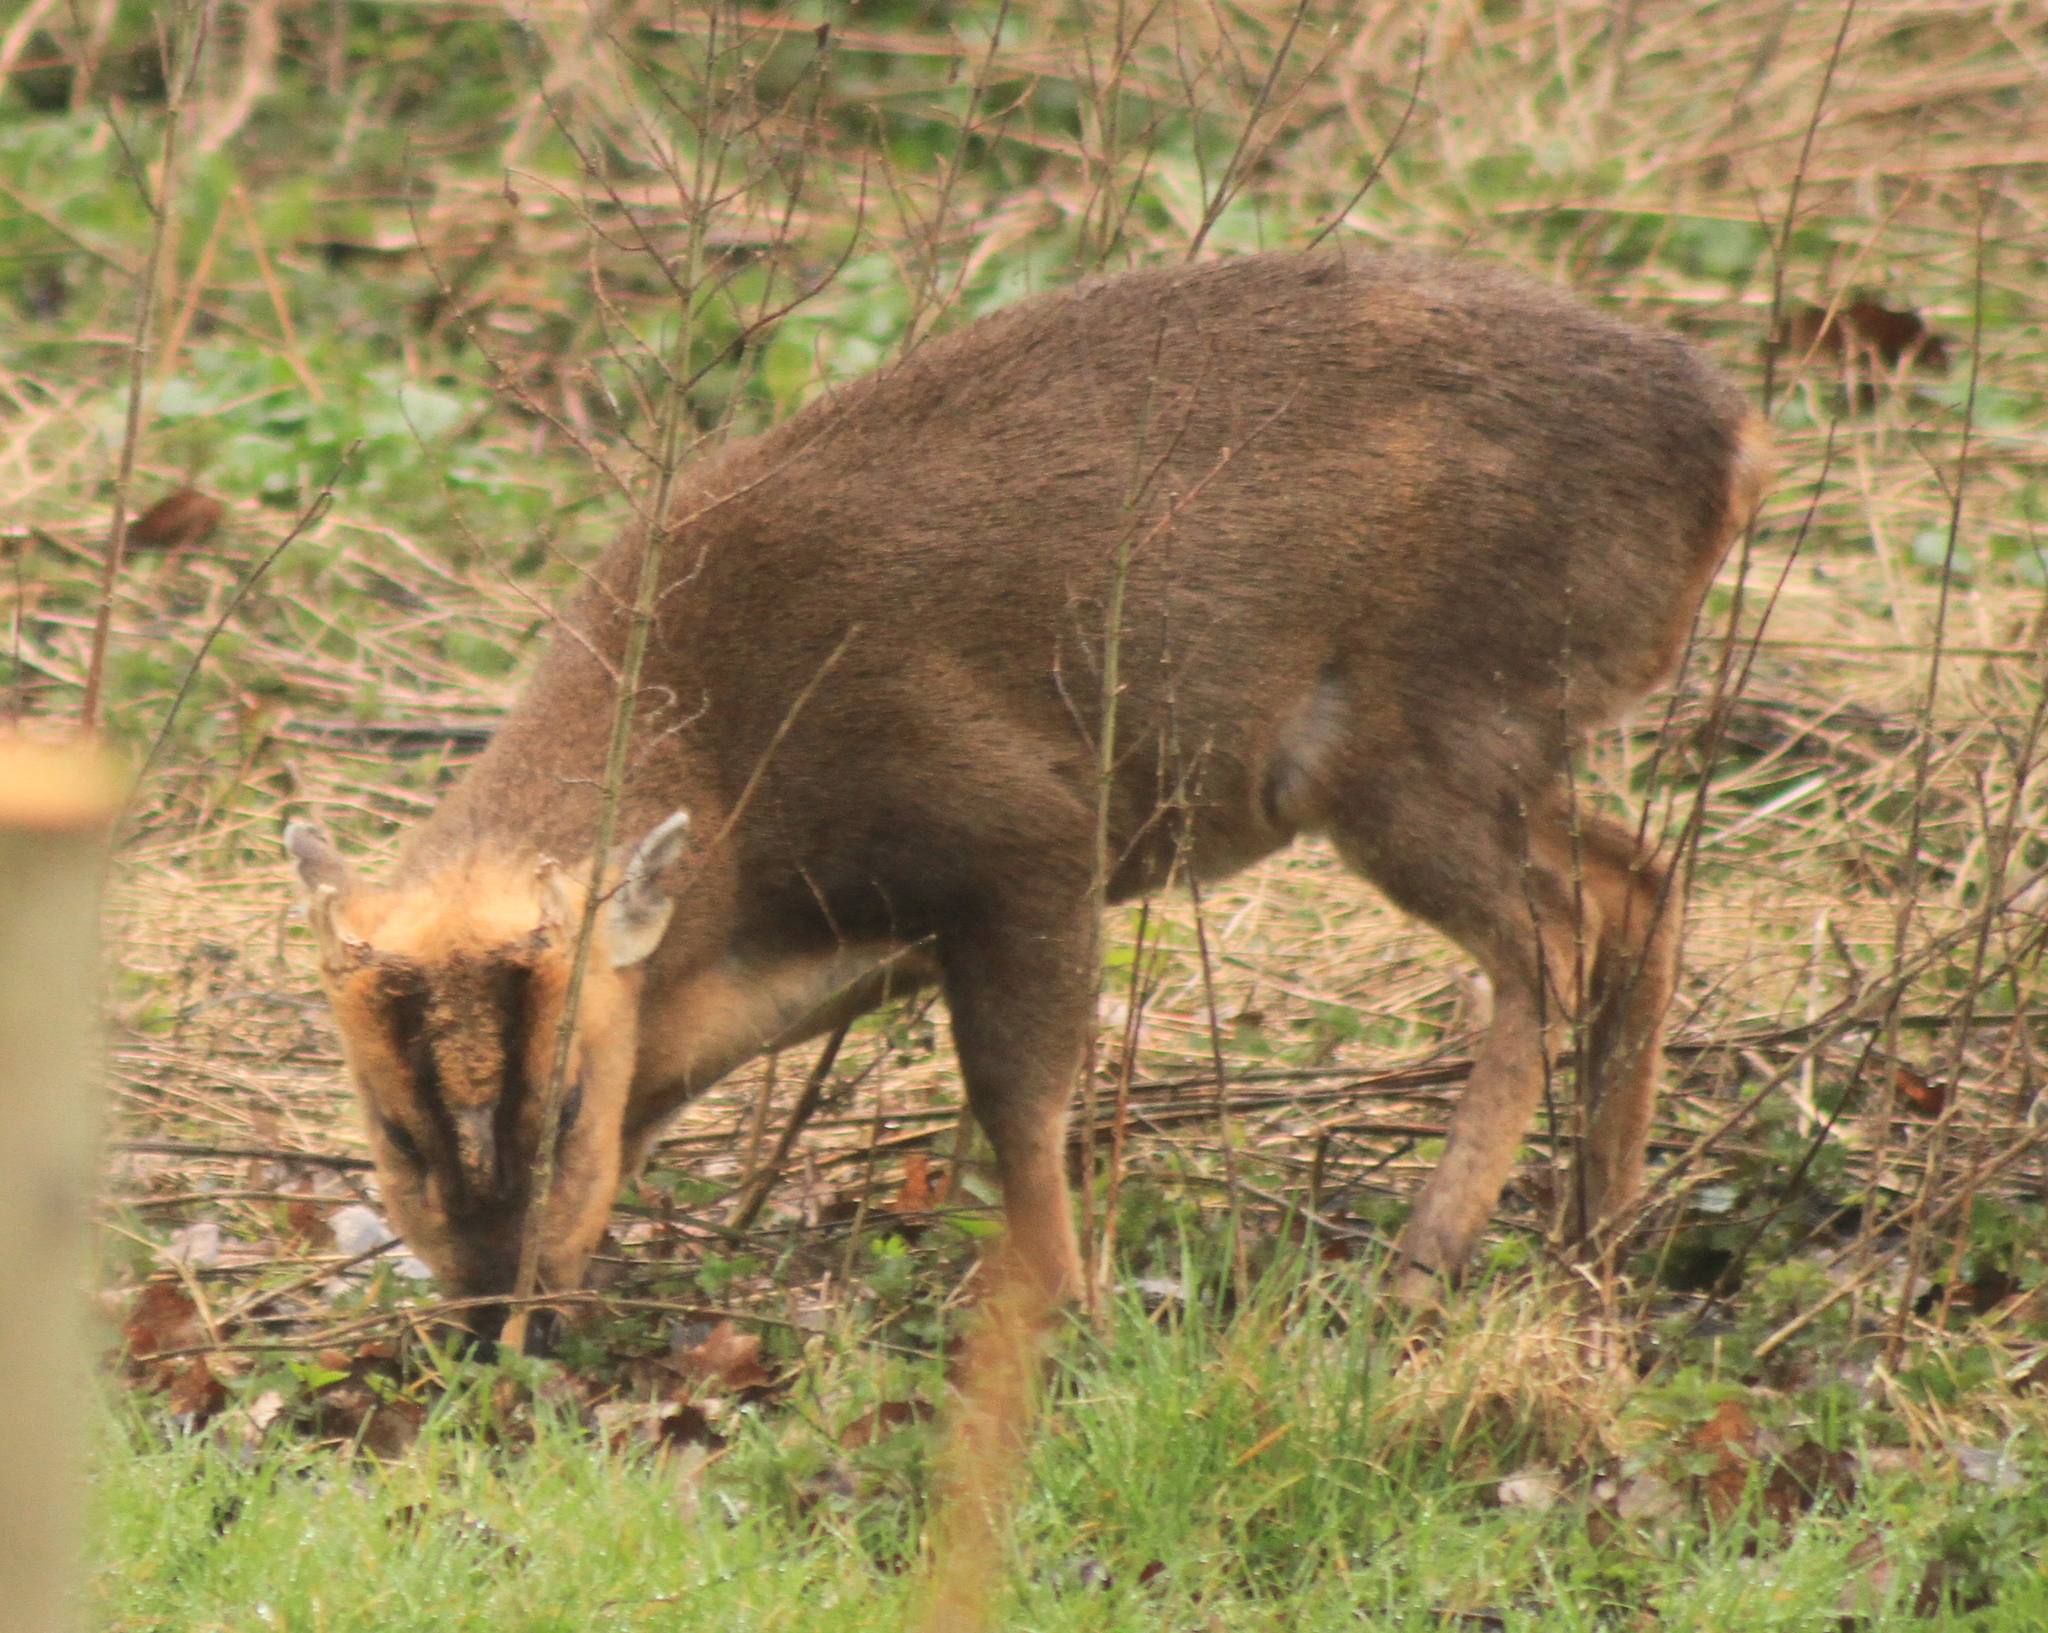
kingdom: Animalia
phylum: Chordata
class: Mammalia
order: Artiodactyla
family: Cervidae
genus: Muntiacus
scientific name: Muntiacus reevesi
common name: Reeves' muntjac
